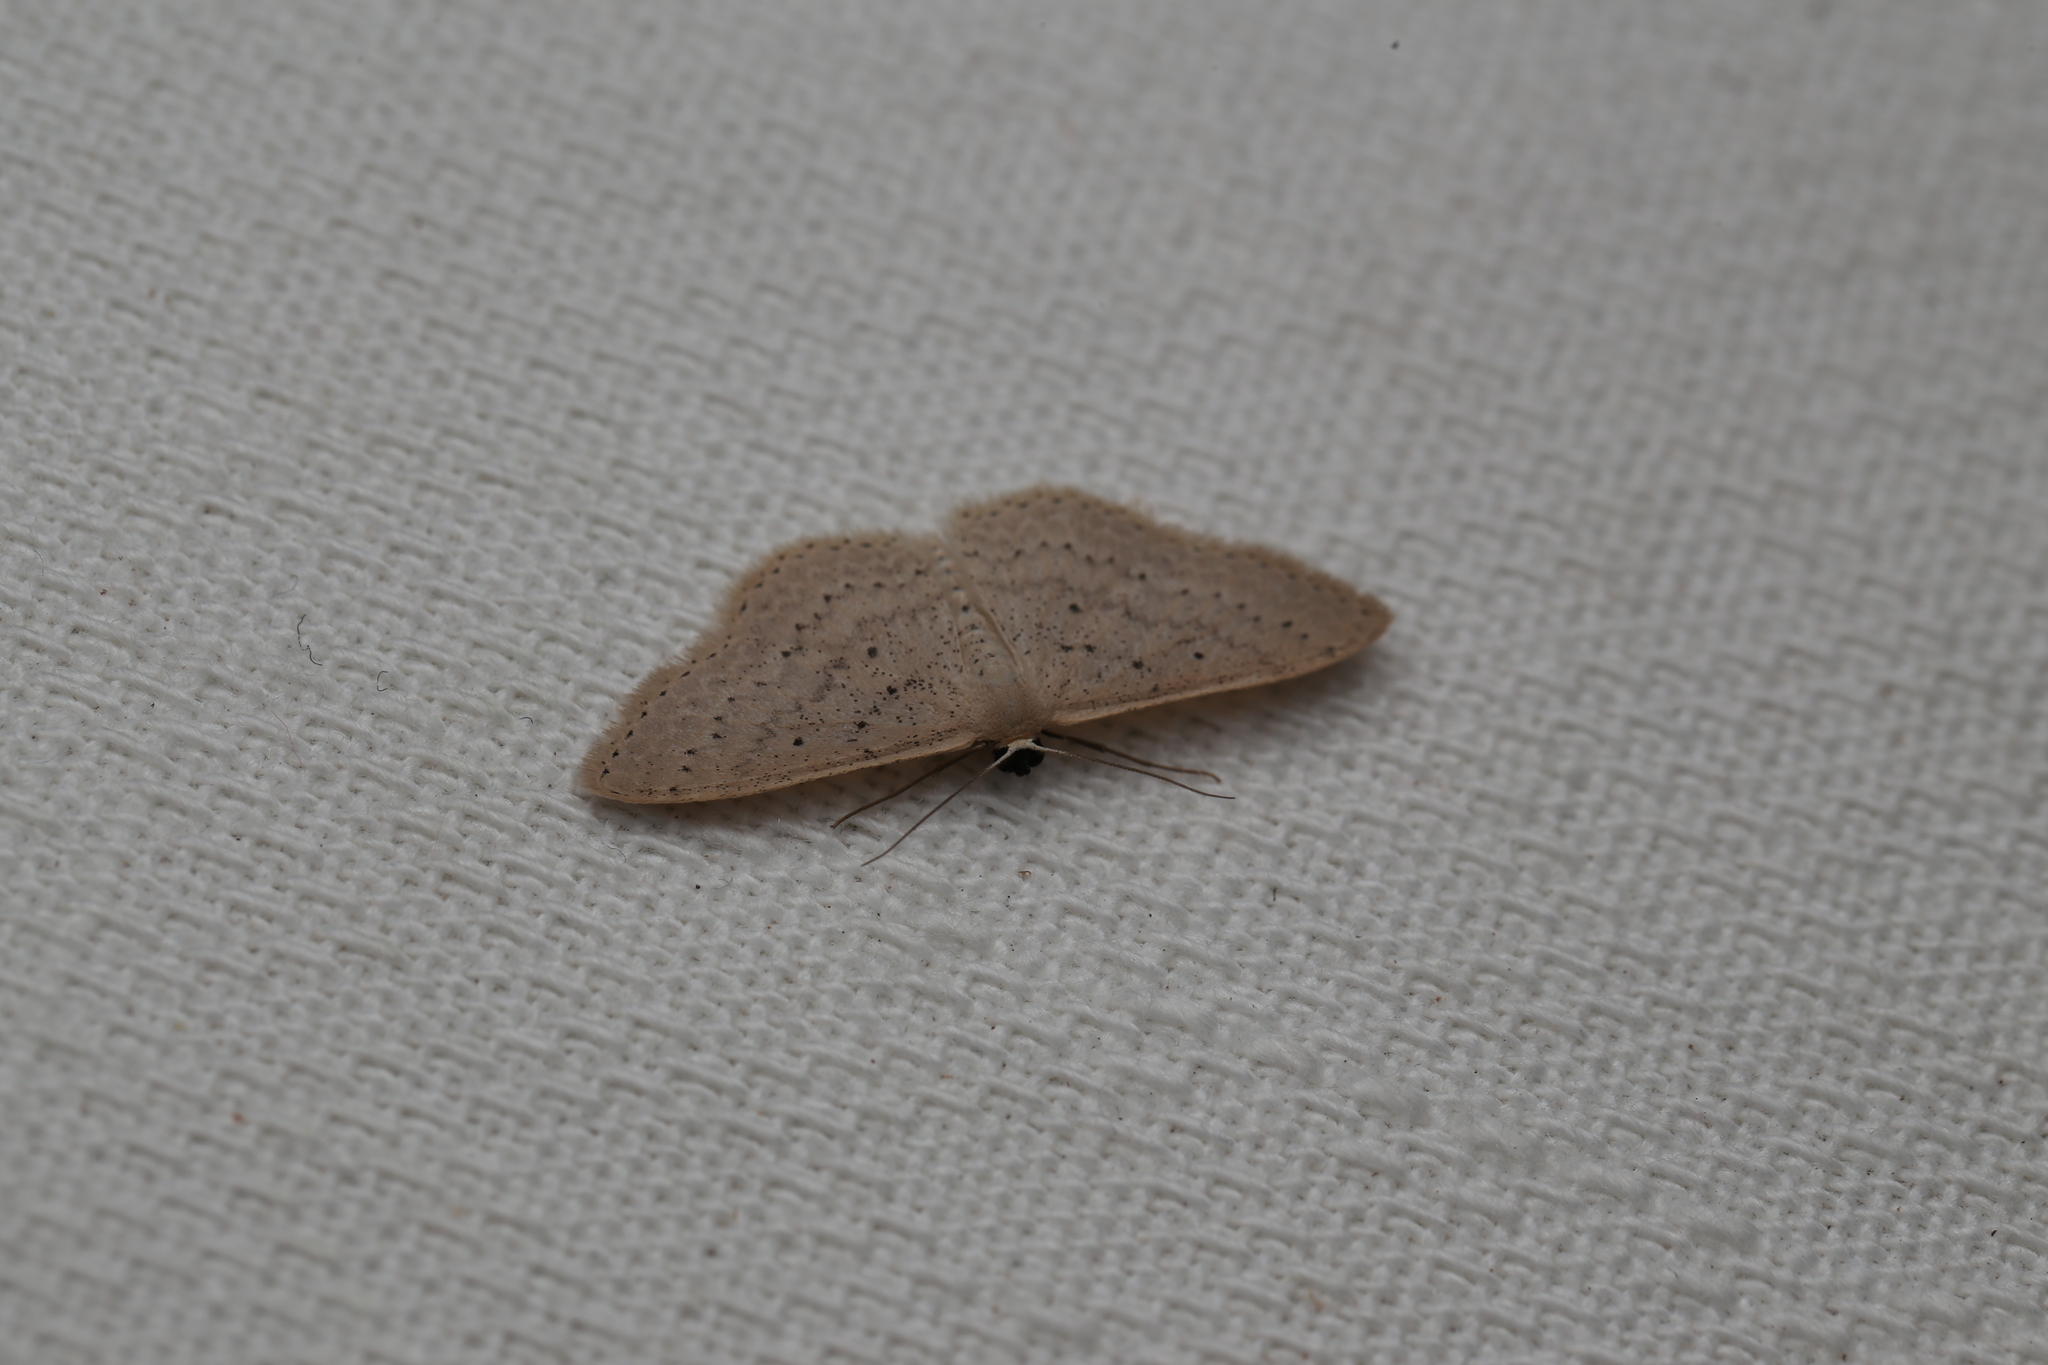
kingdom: Animalia
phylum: Arthropoda
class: Insecta
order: Lepidoptera
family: Geometridae
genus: Scopula
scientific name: Scopula sublinearia
